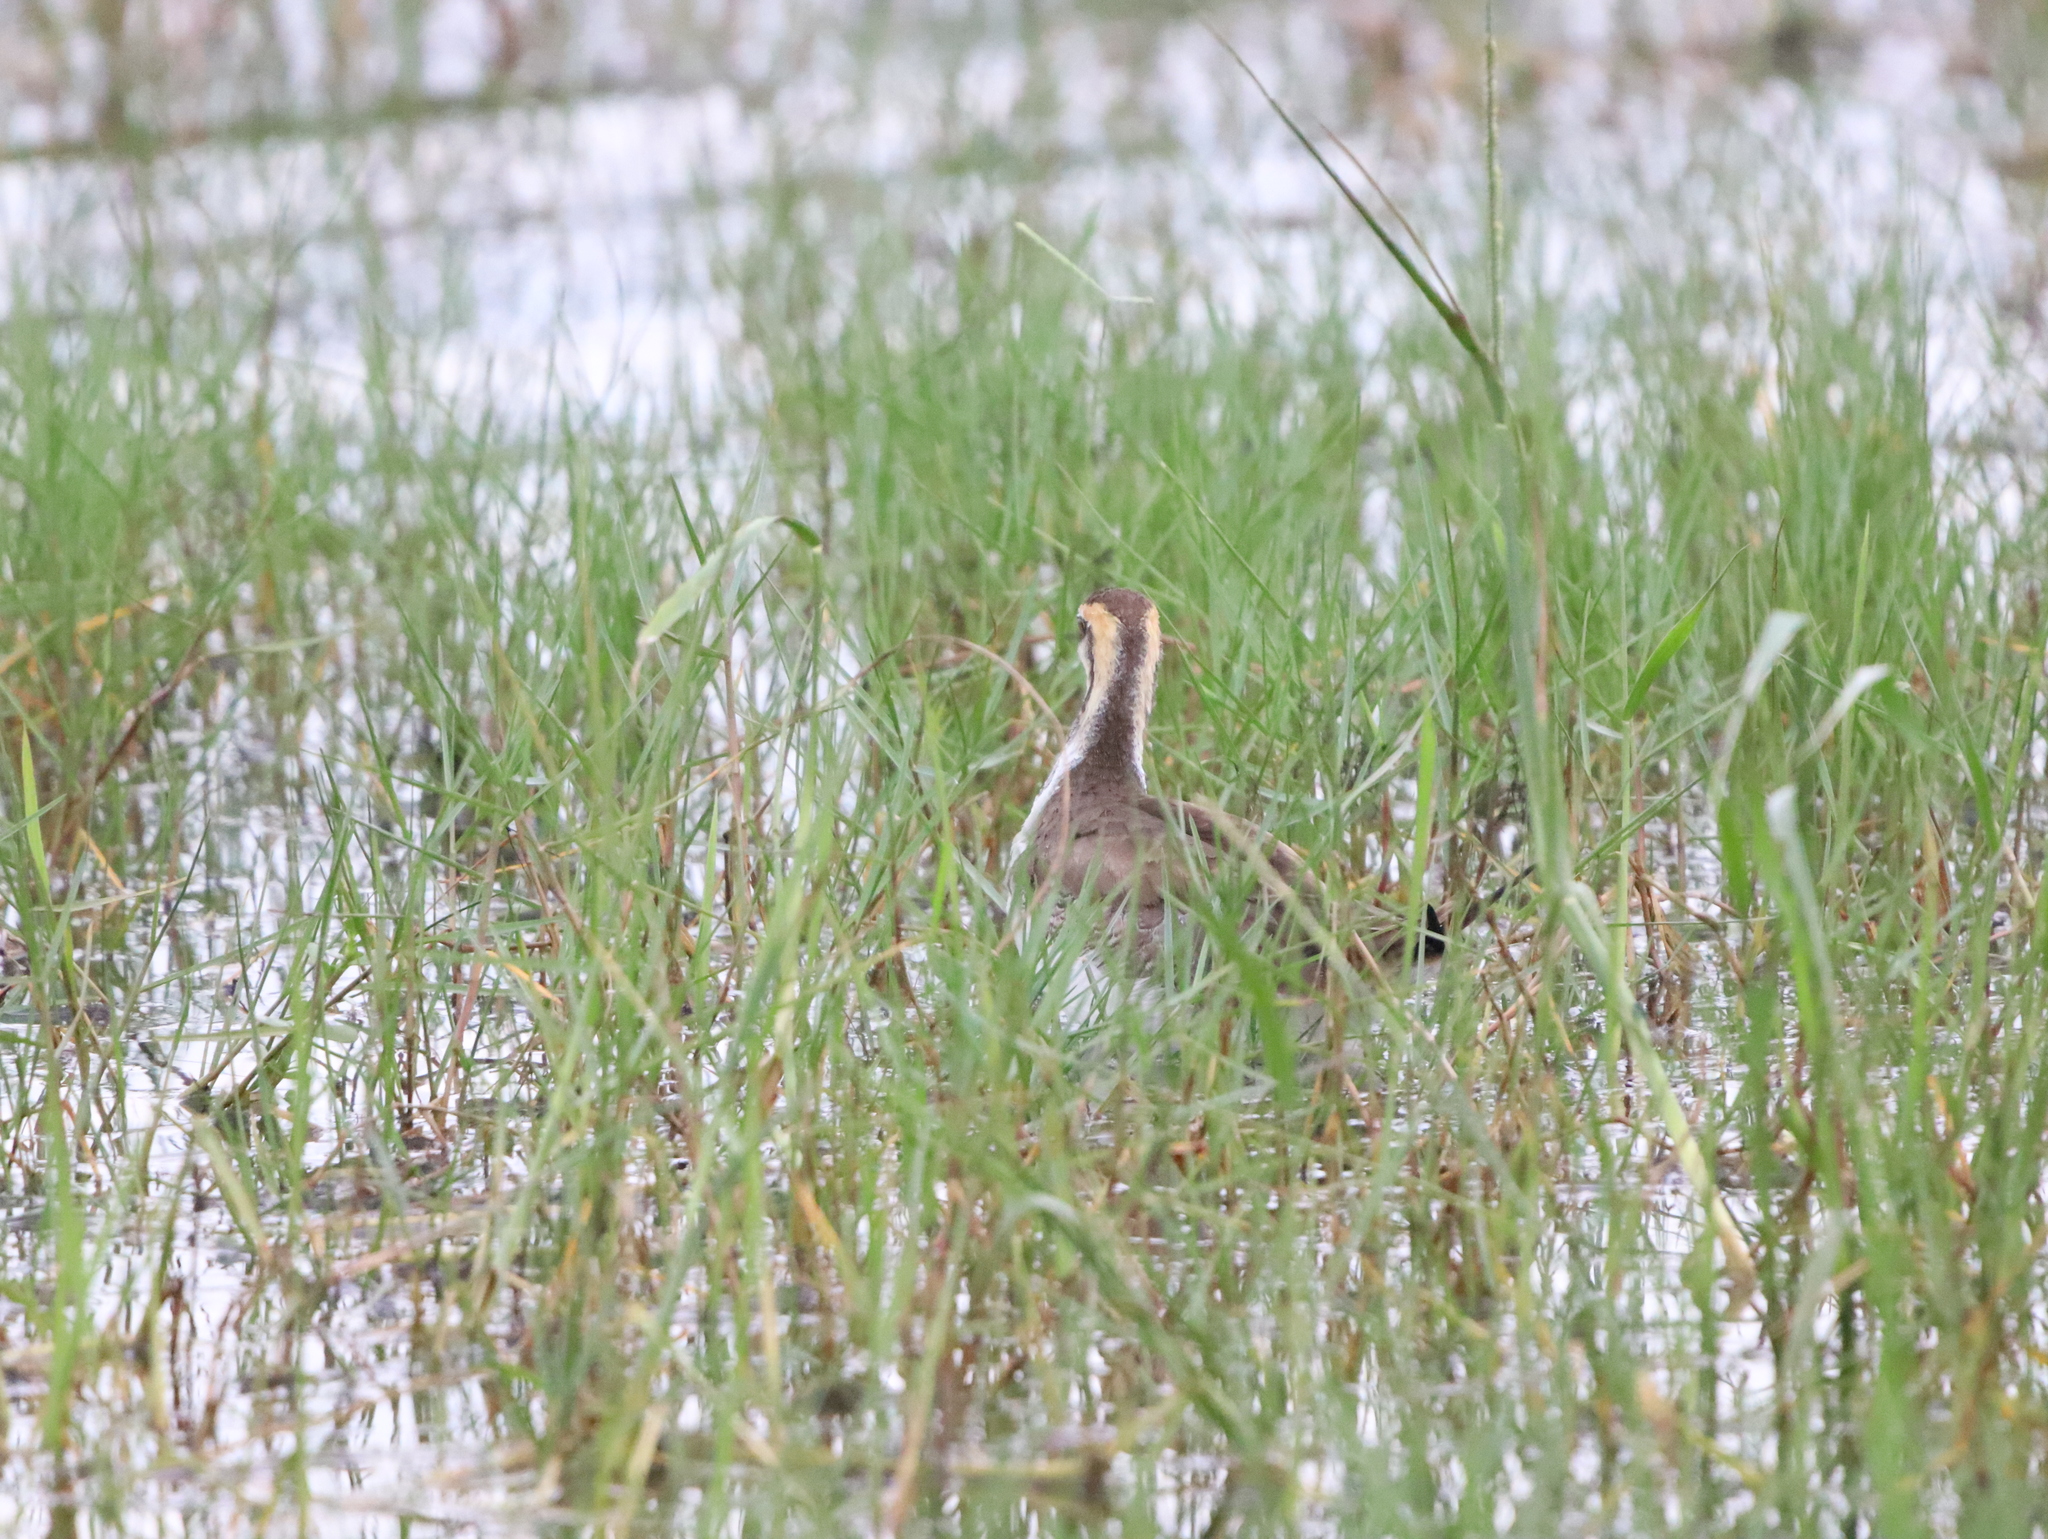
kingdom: Animalia
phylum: Chordata
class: Aves
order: Charadriiformes
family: Jacanidae
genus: Hydrophasianus
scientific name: Hydrophasianus chirurgus
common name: Pheasant-tailed jacana
